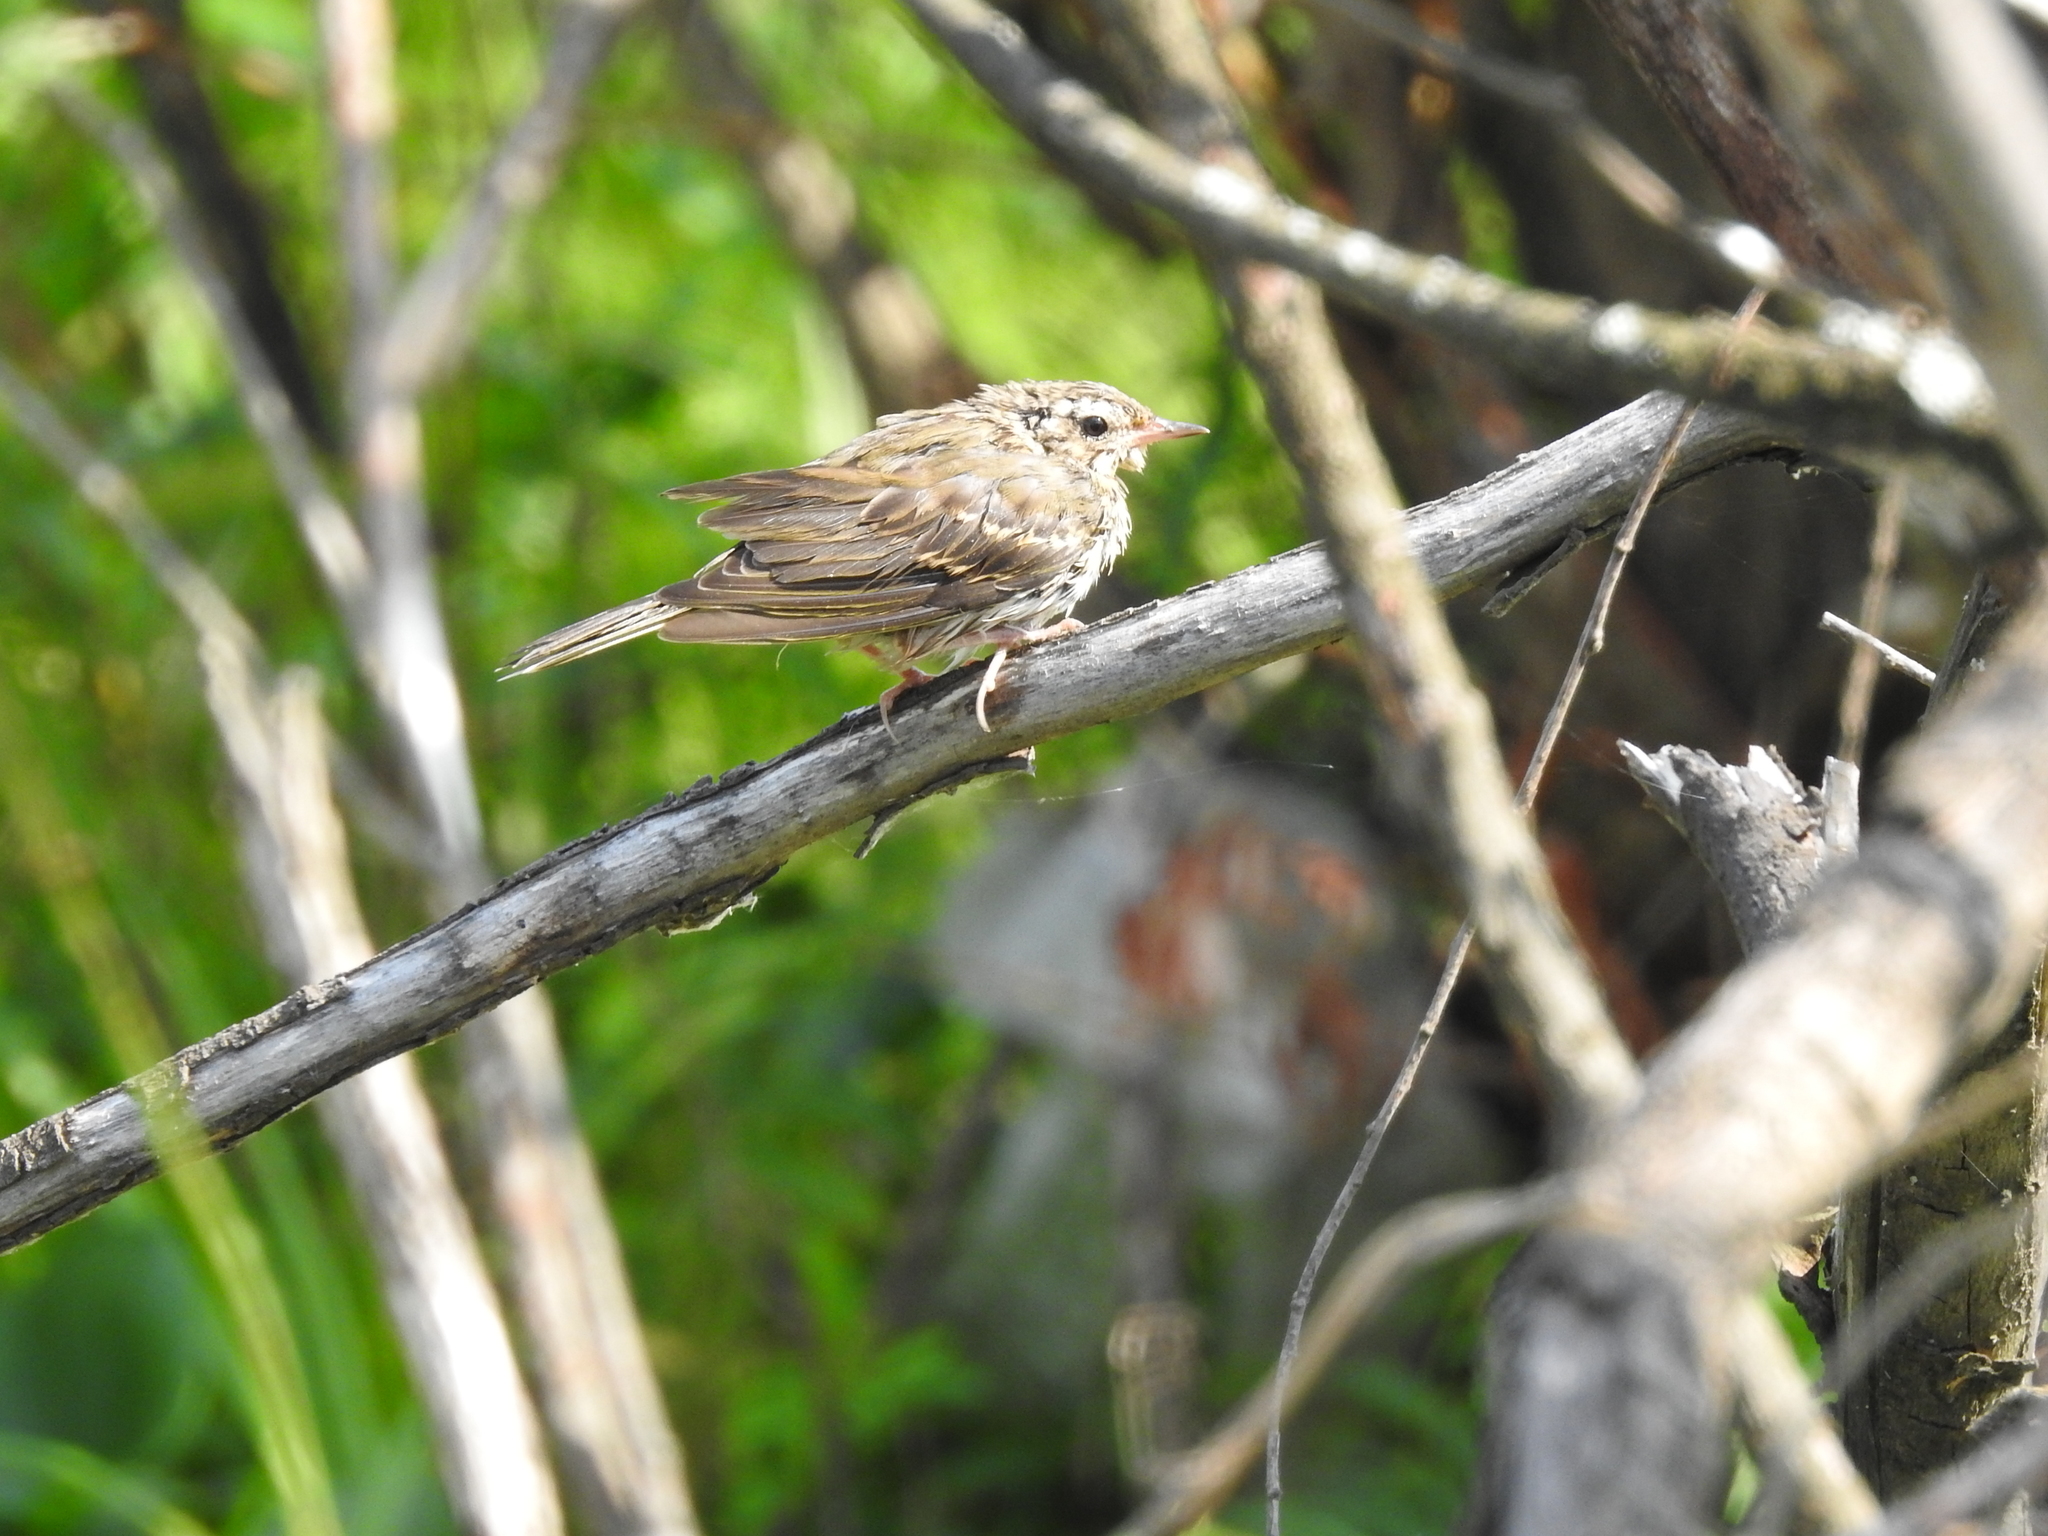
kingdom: Animalia
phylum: Chordata
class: Aves
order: Passeriformes
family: Motacillidae
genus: Anthus
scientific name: Anthus trivialis
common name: Tree pipit
